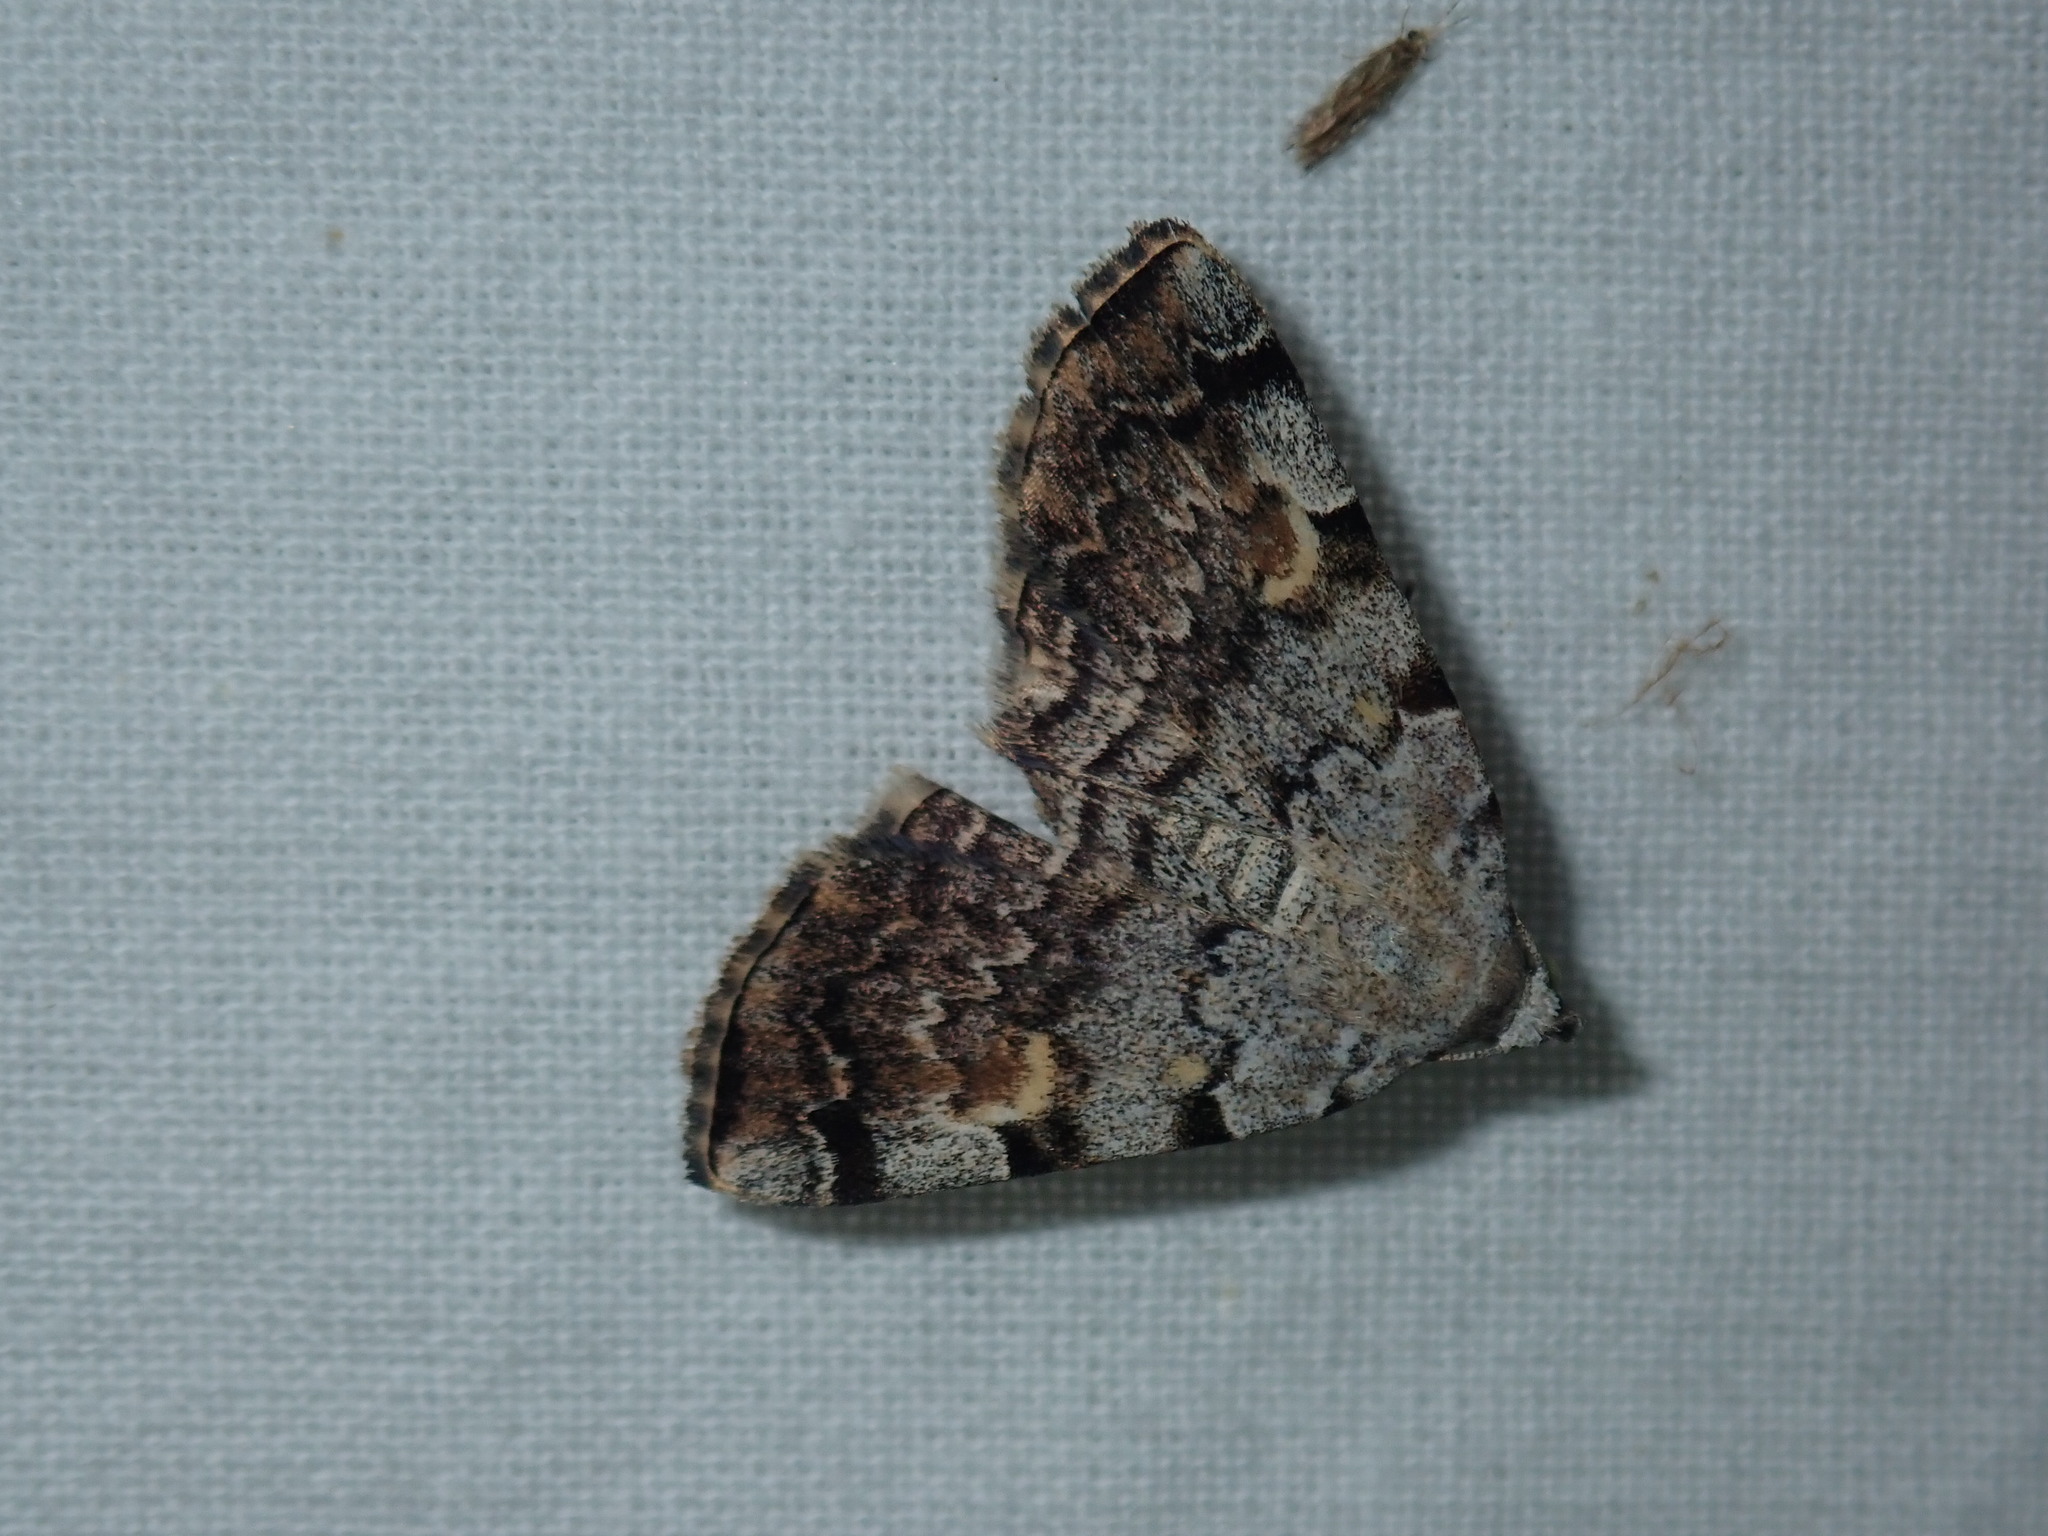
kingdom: Animalia
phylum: Arthropoda
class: Insecta
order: Lepidoptera
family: Erebidae
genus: Idia
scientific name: Idia americalis
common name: American idia moth
